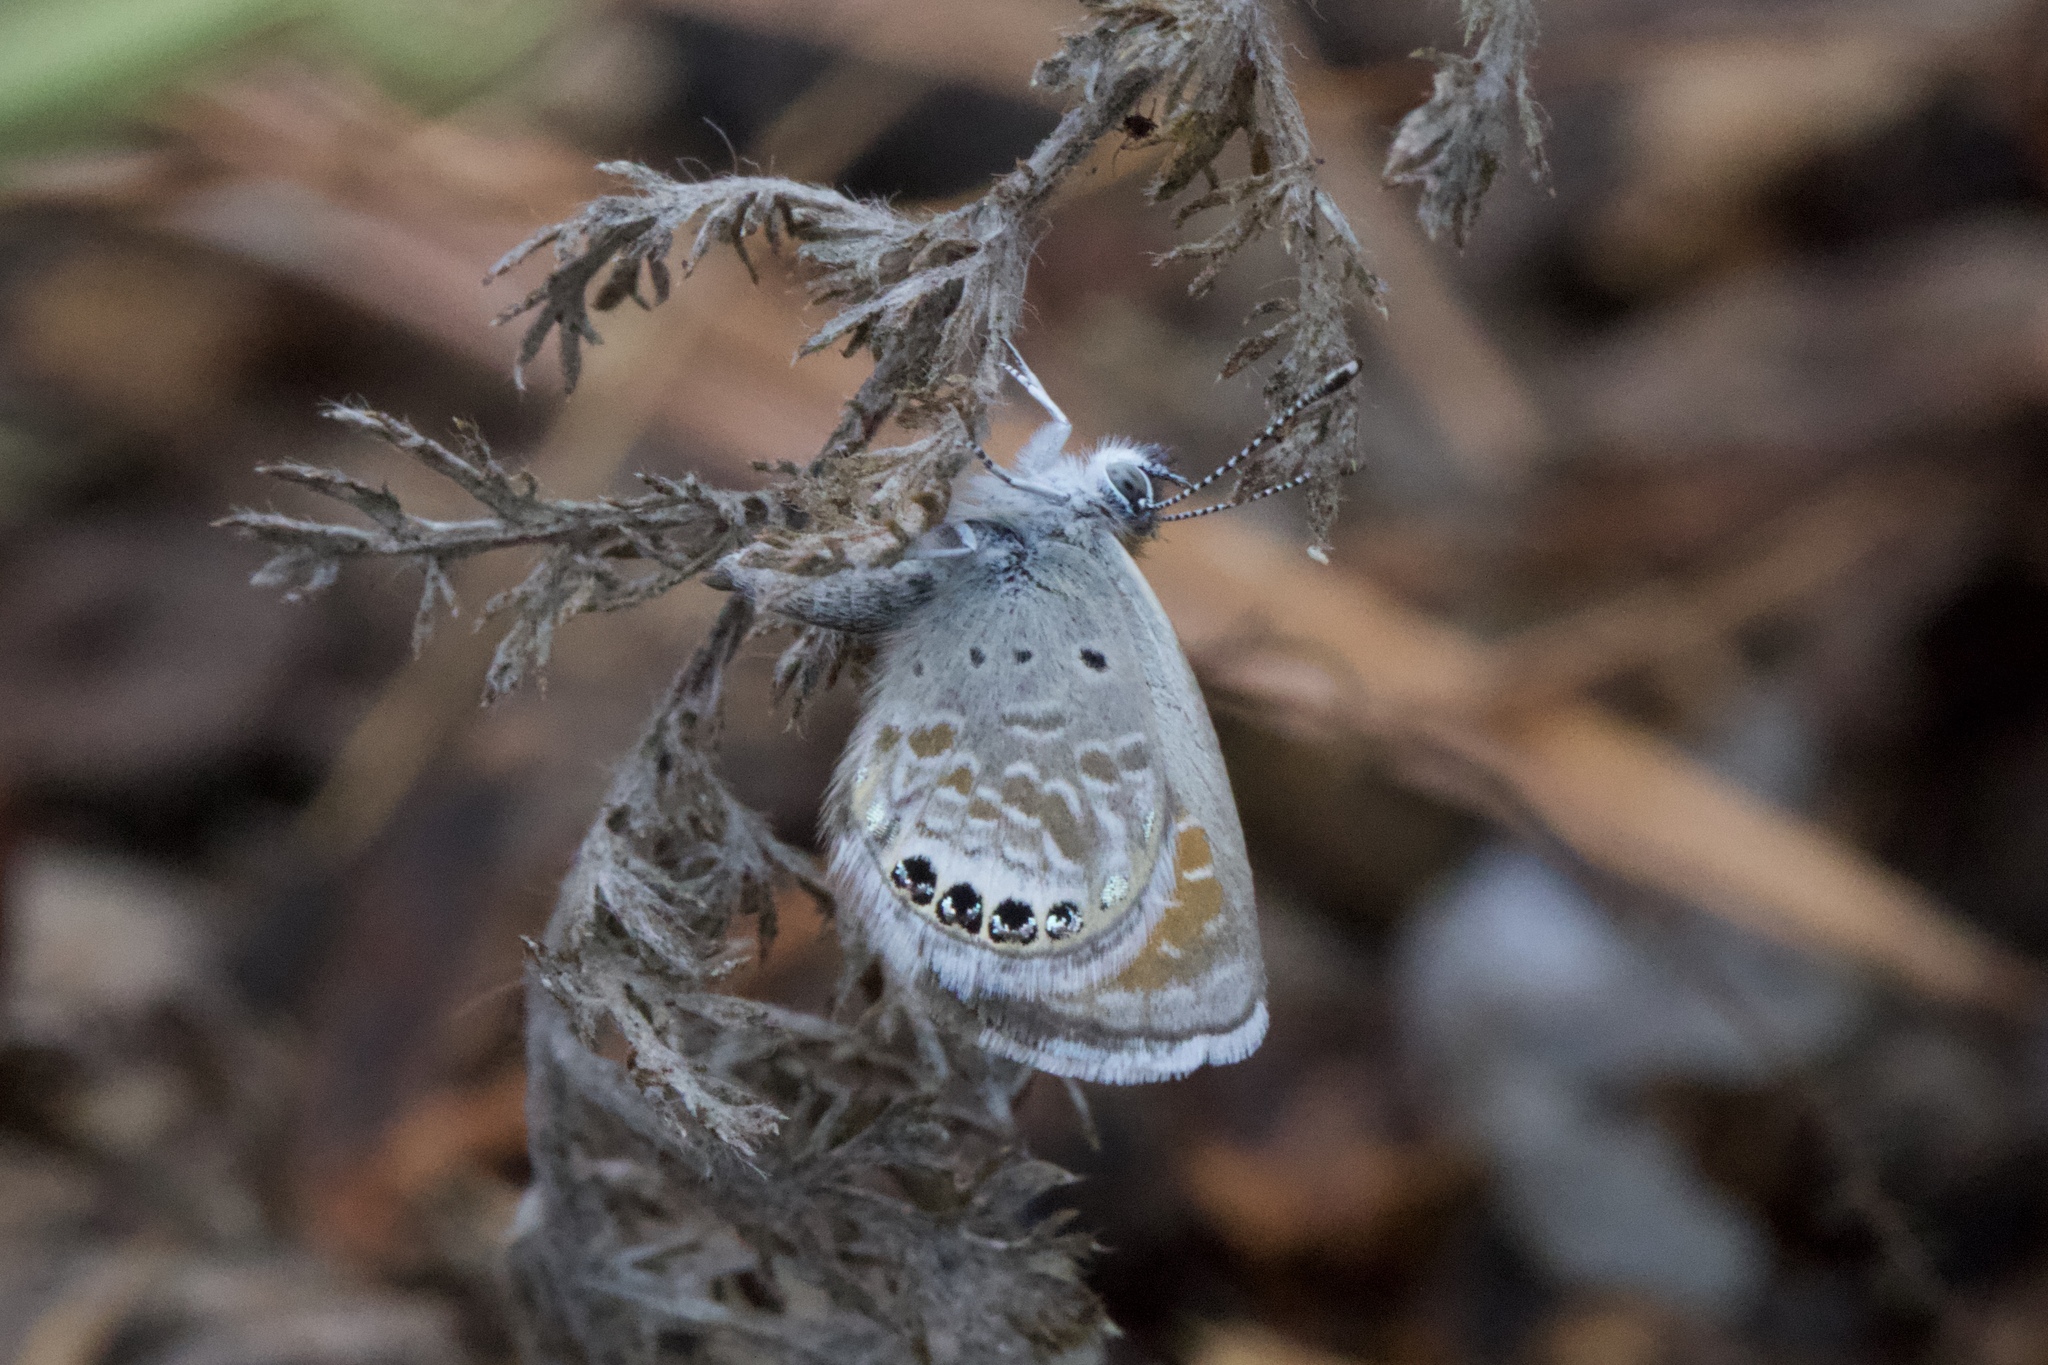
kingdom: Animalia
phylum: Arthropoda
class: Insecta
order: Lepidoptera
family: Lycaenidae
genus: Brephidium
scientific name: Brephidium exilis
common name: Pygmy blue
